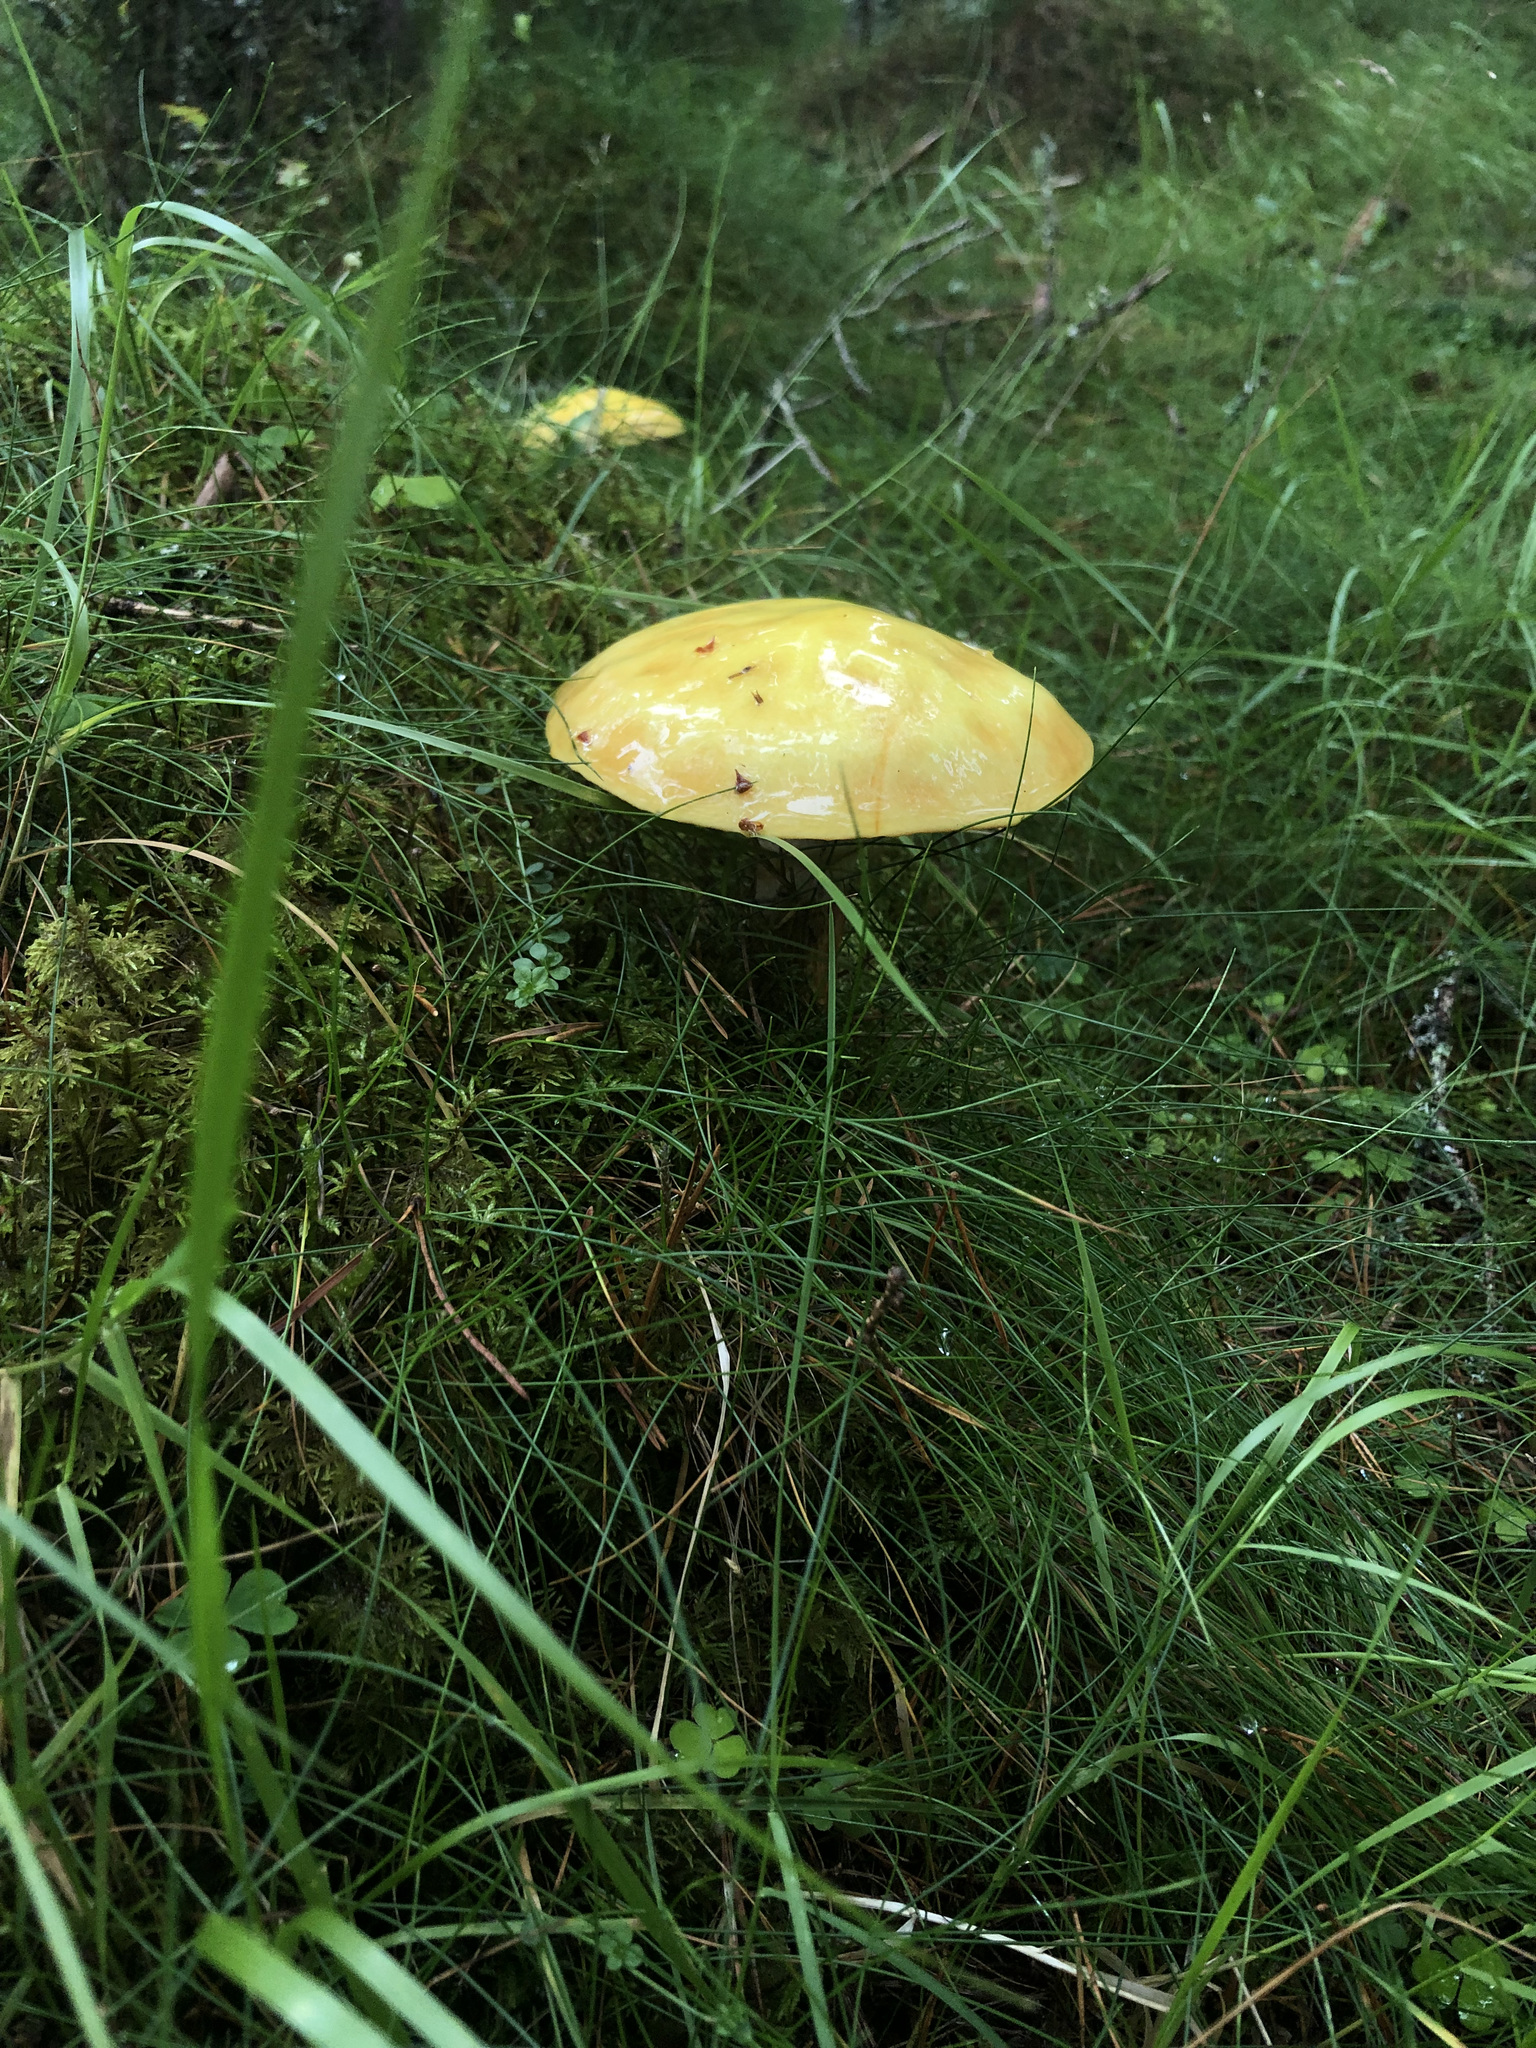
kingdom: Fungi
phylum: Basidiomycota
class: Agaricomycetes
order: Russulales
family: Russulaceae
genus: Russula
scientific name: Russula claroflava
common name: The yellow swamp brittlegill
